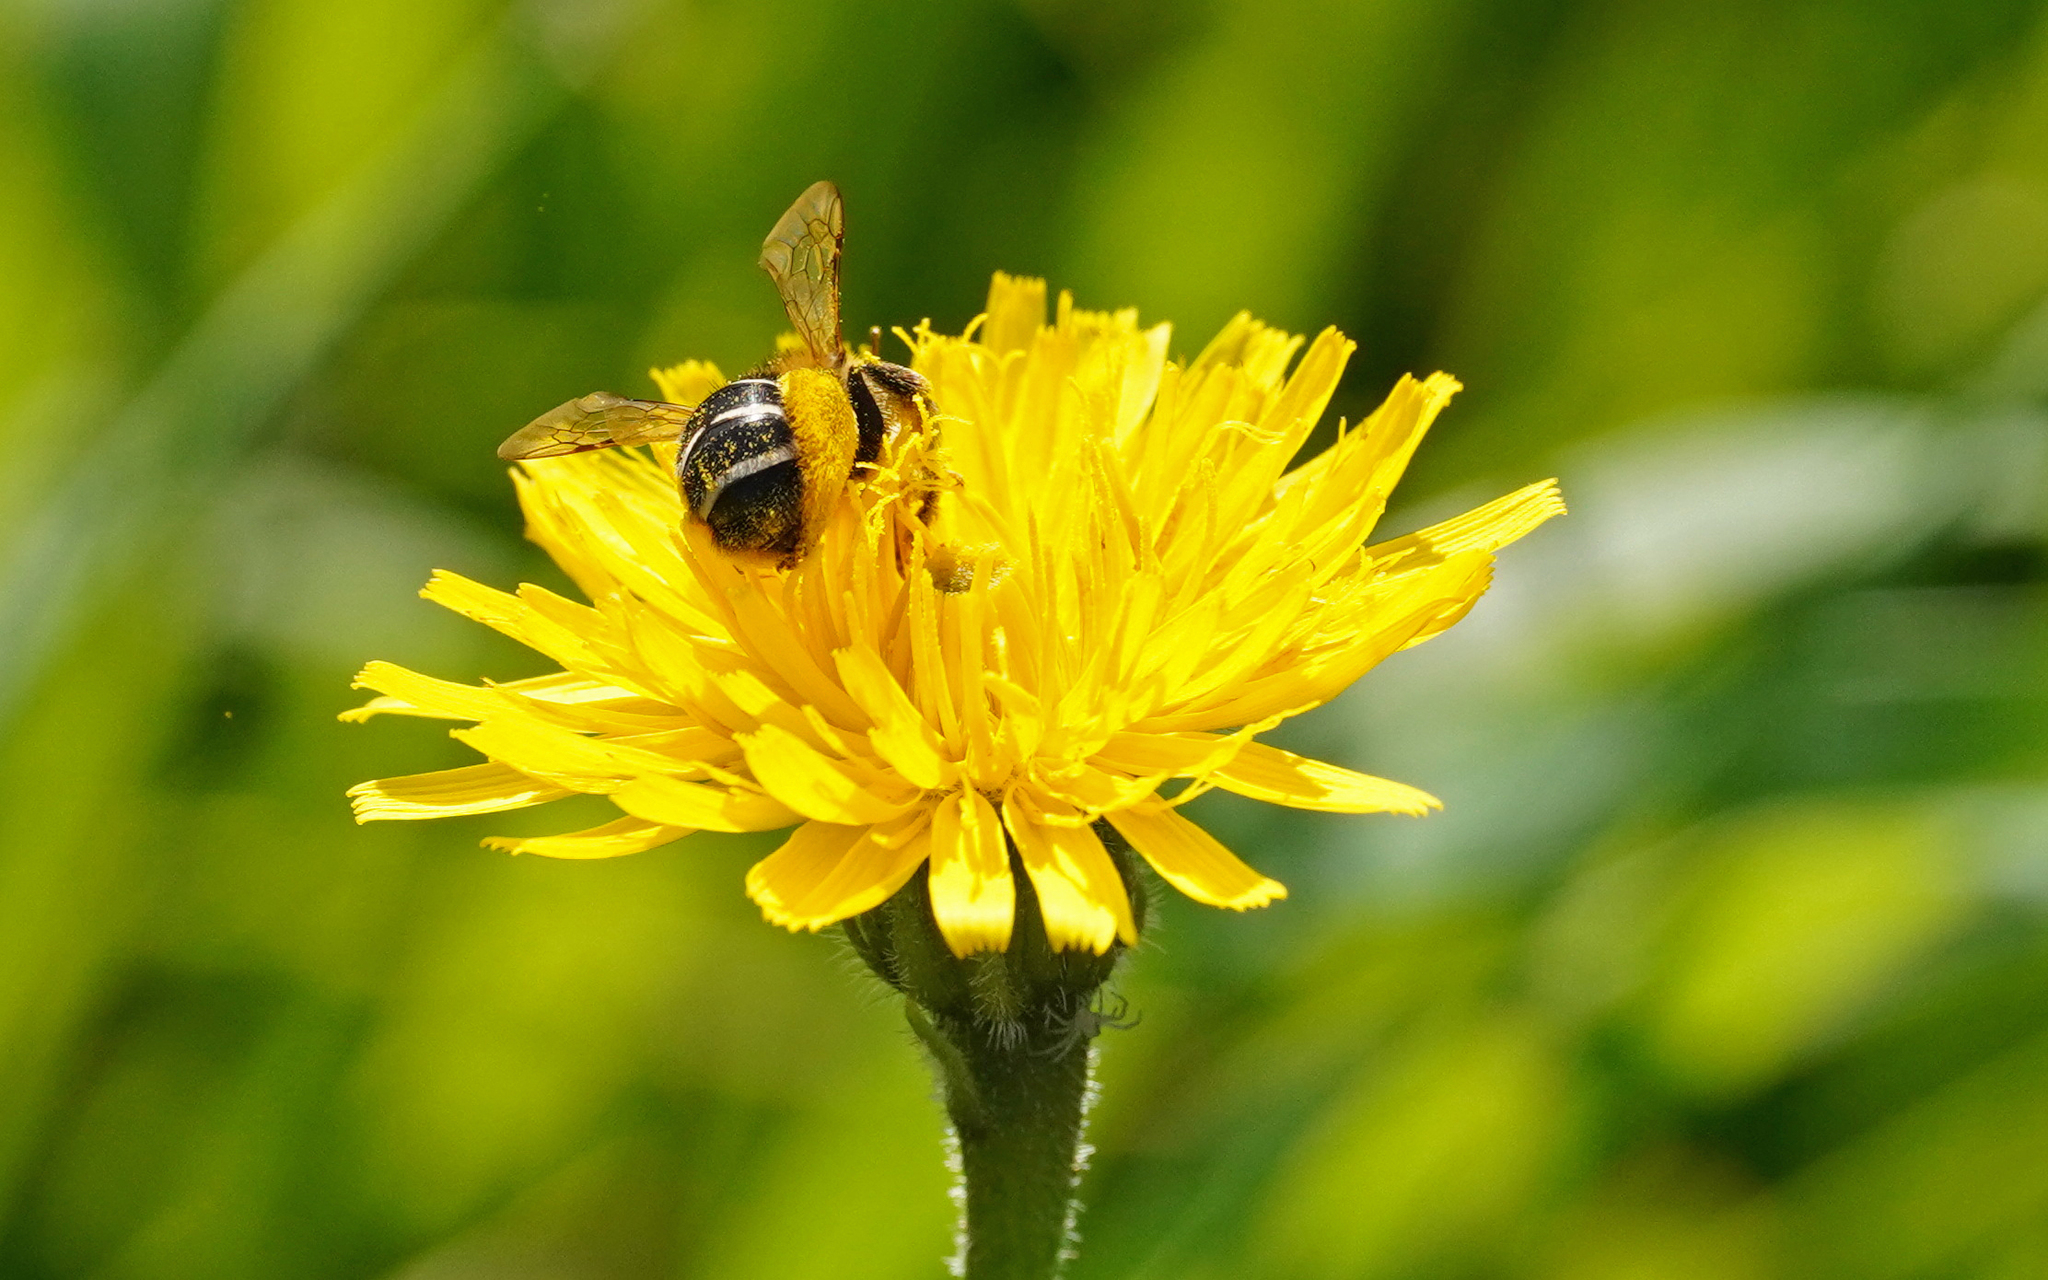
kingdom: Animalia
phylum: Arthropoda
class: Insecta
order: Hymenoptera
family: Melittidae
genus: Dasypoda
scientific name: Dasypoda hirtipes
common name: Pantaloon bee
